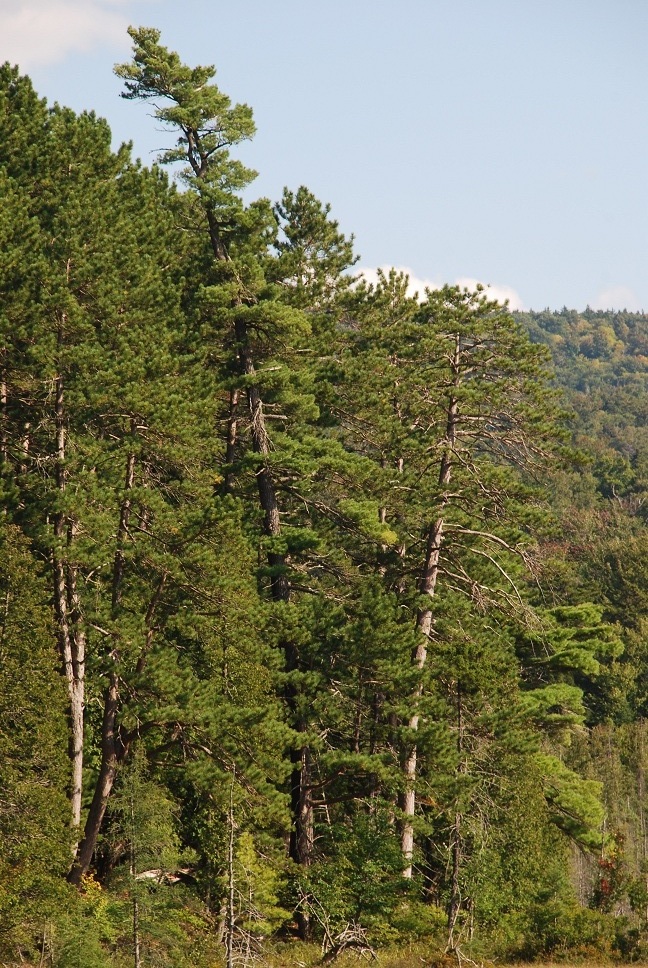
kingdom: Plantae
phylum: Tracheophyta
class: Pinopsida
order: Pinales
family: Pinaceae
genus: Pinus
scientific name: Pinus resinosa
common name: Norway pine
